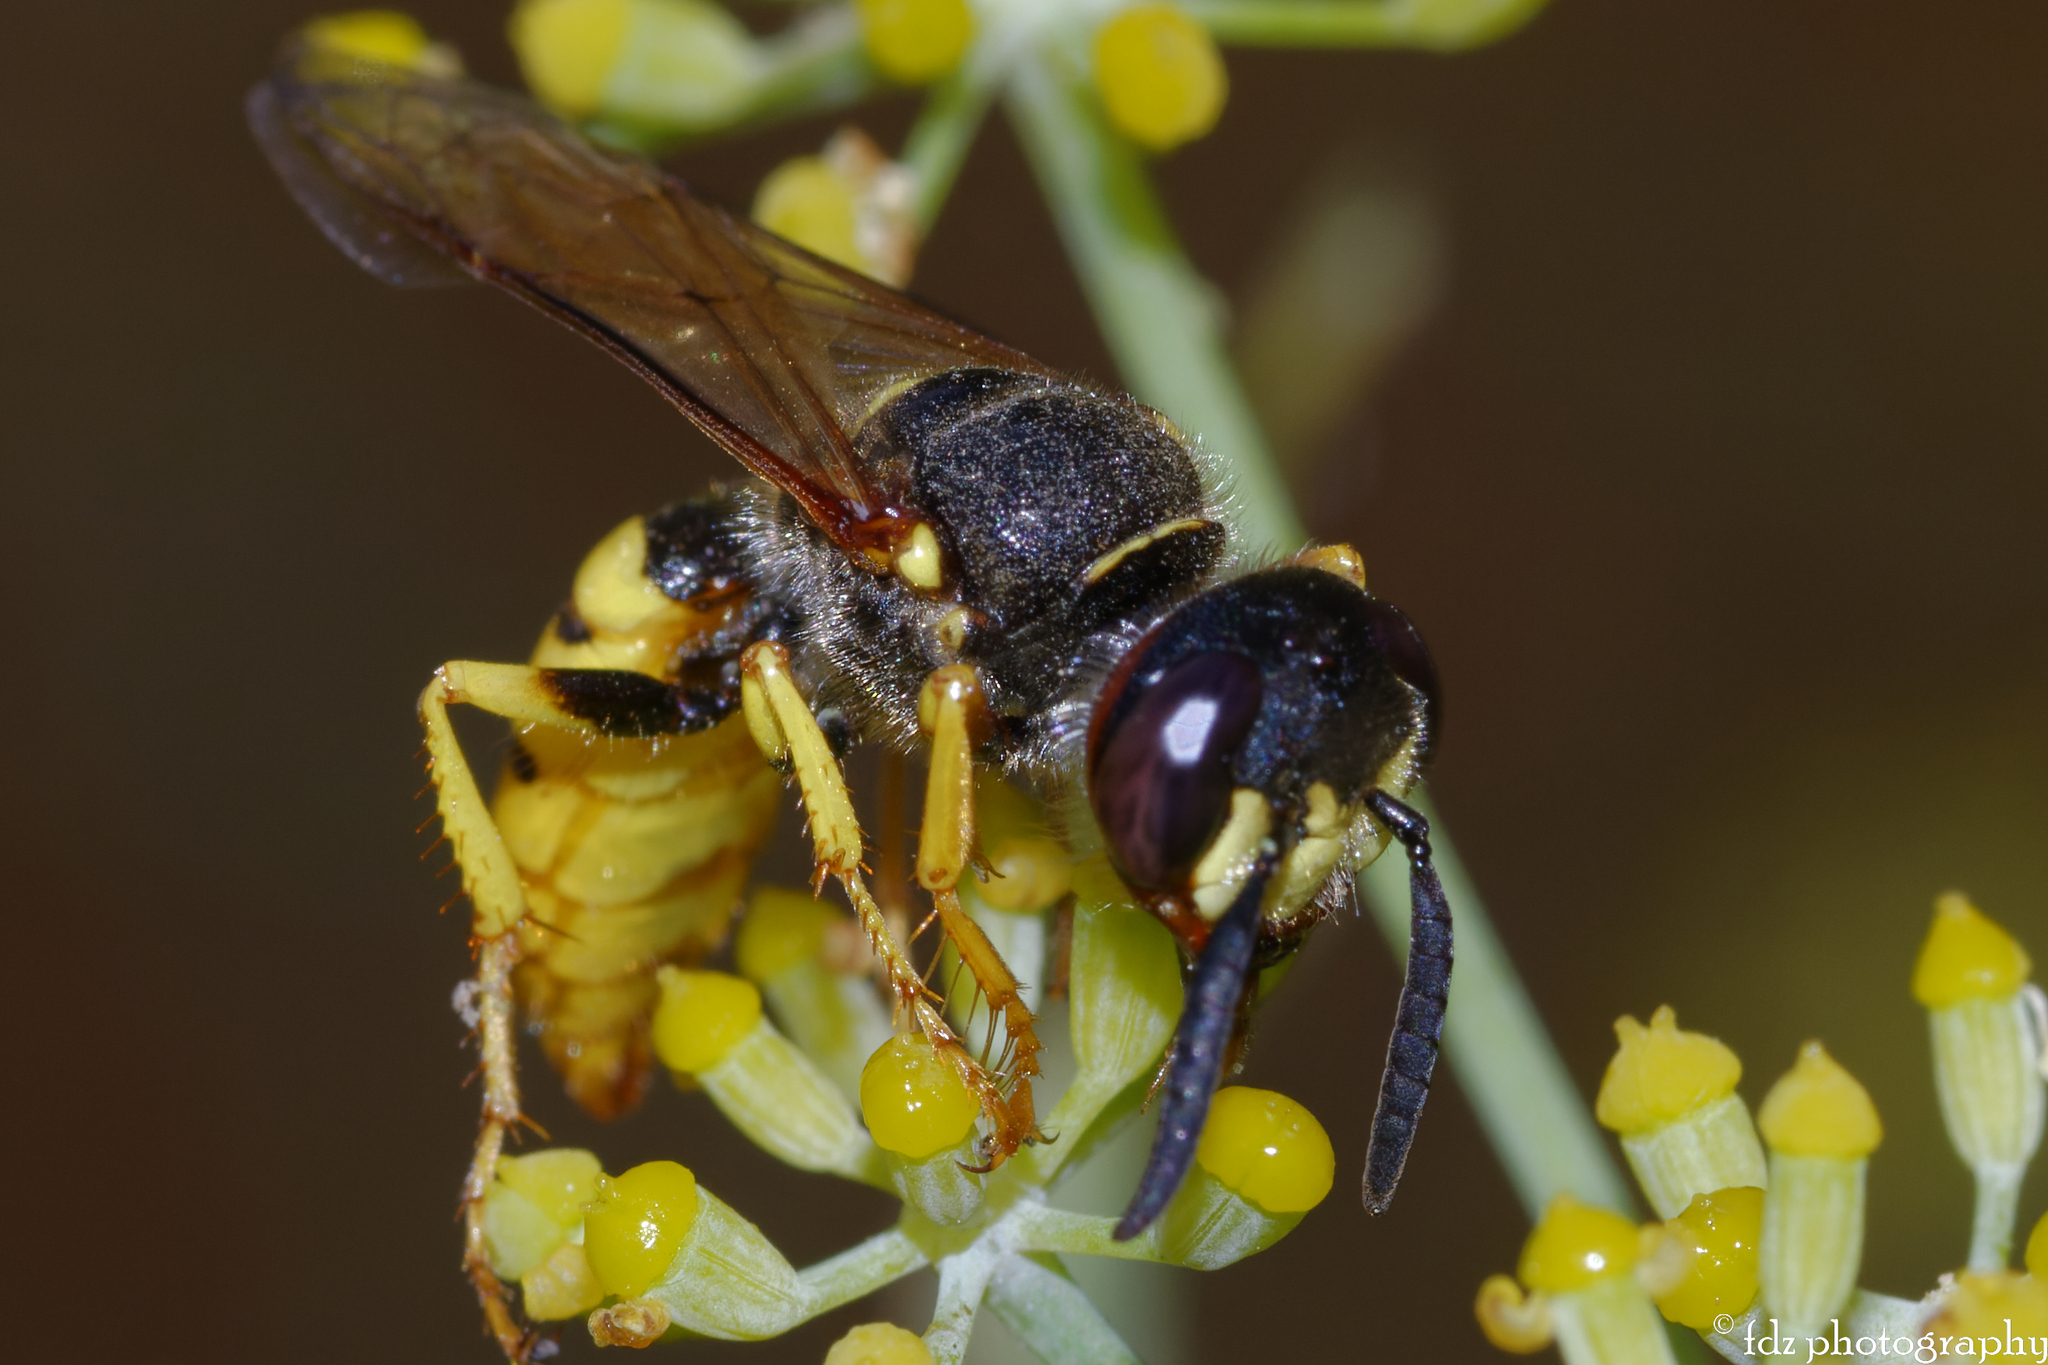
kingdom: Animalia
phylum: Arthropoda
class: Insecta
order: Hymenoptera
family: Crabronidae
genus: Philanthus
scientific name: Philanthus triangulum
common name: Bee wolf
